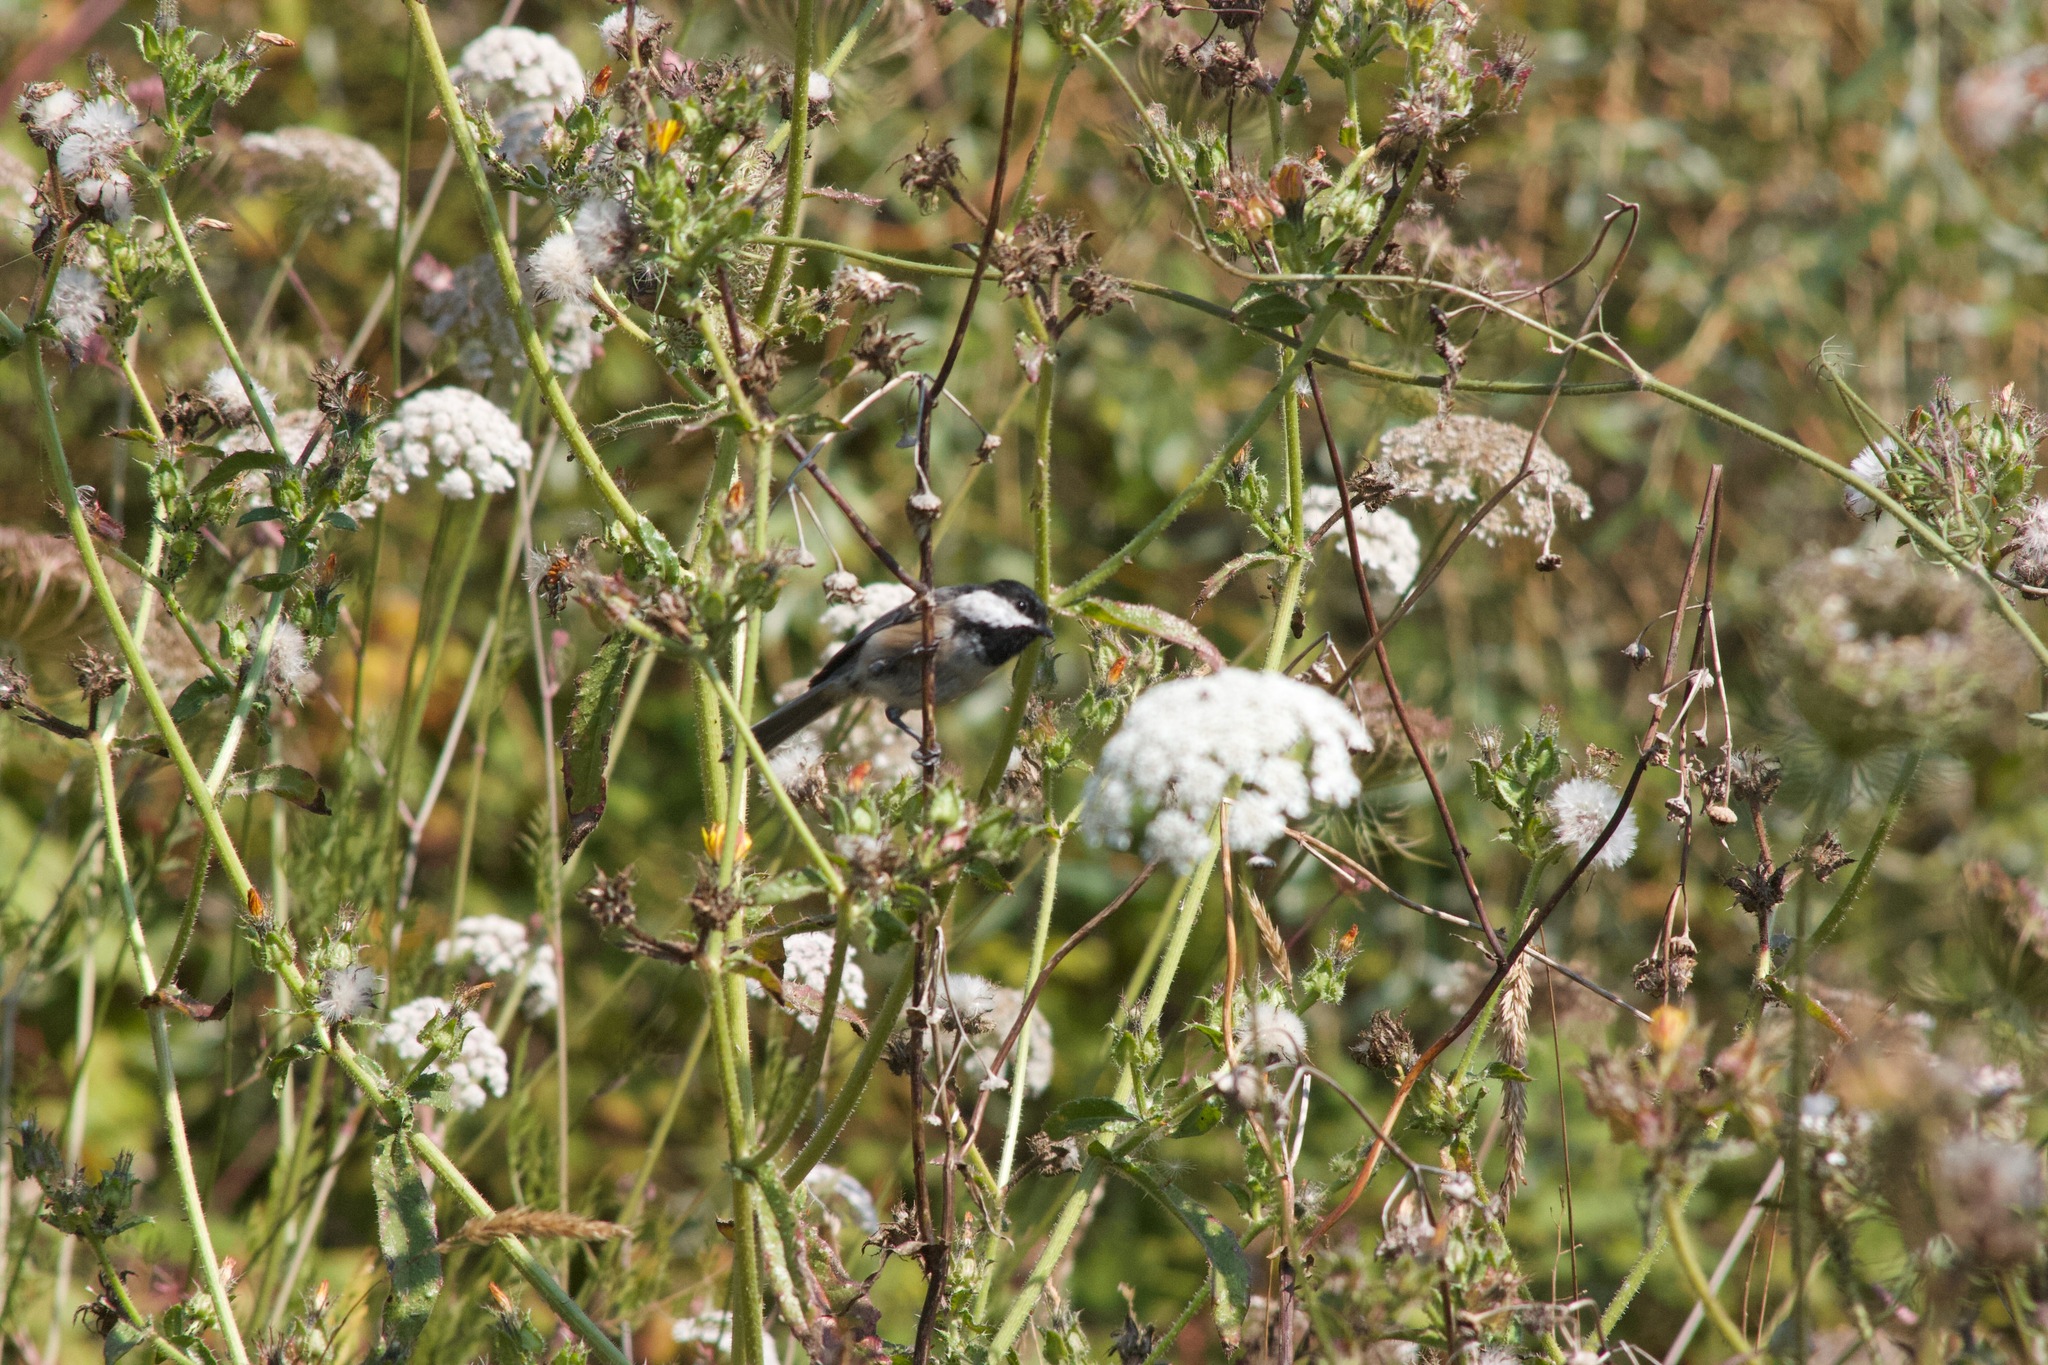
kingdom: Animalia
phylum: Chordata
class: Aves
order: Passeriformes
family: Paridae
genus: Poecile
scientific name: Poecile rufescens
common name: Chestnut-backed chickadee
